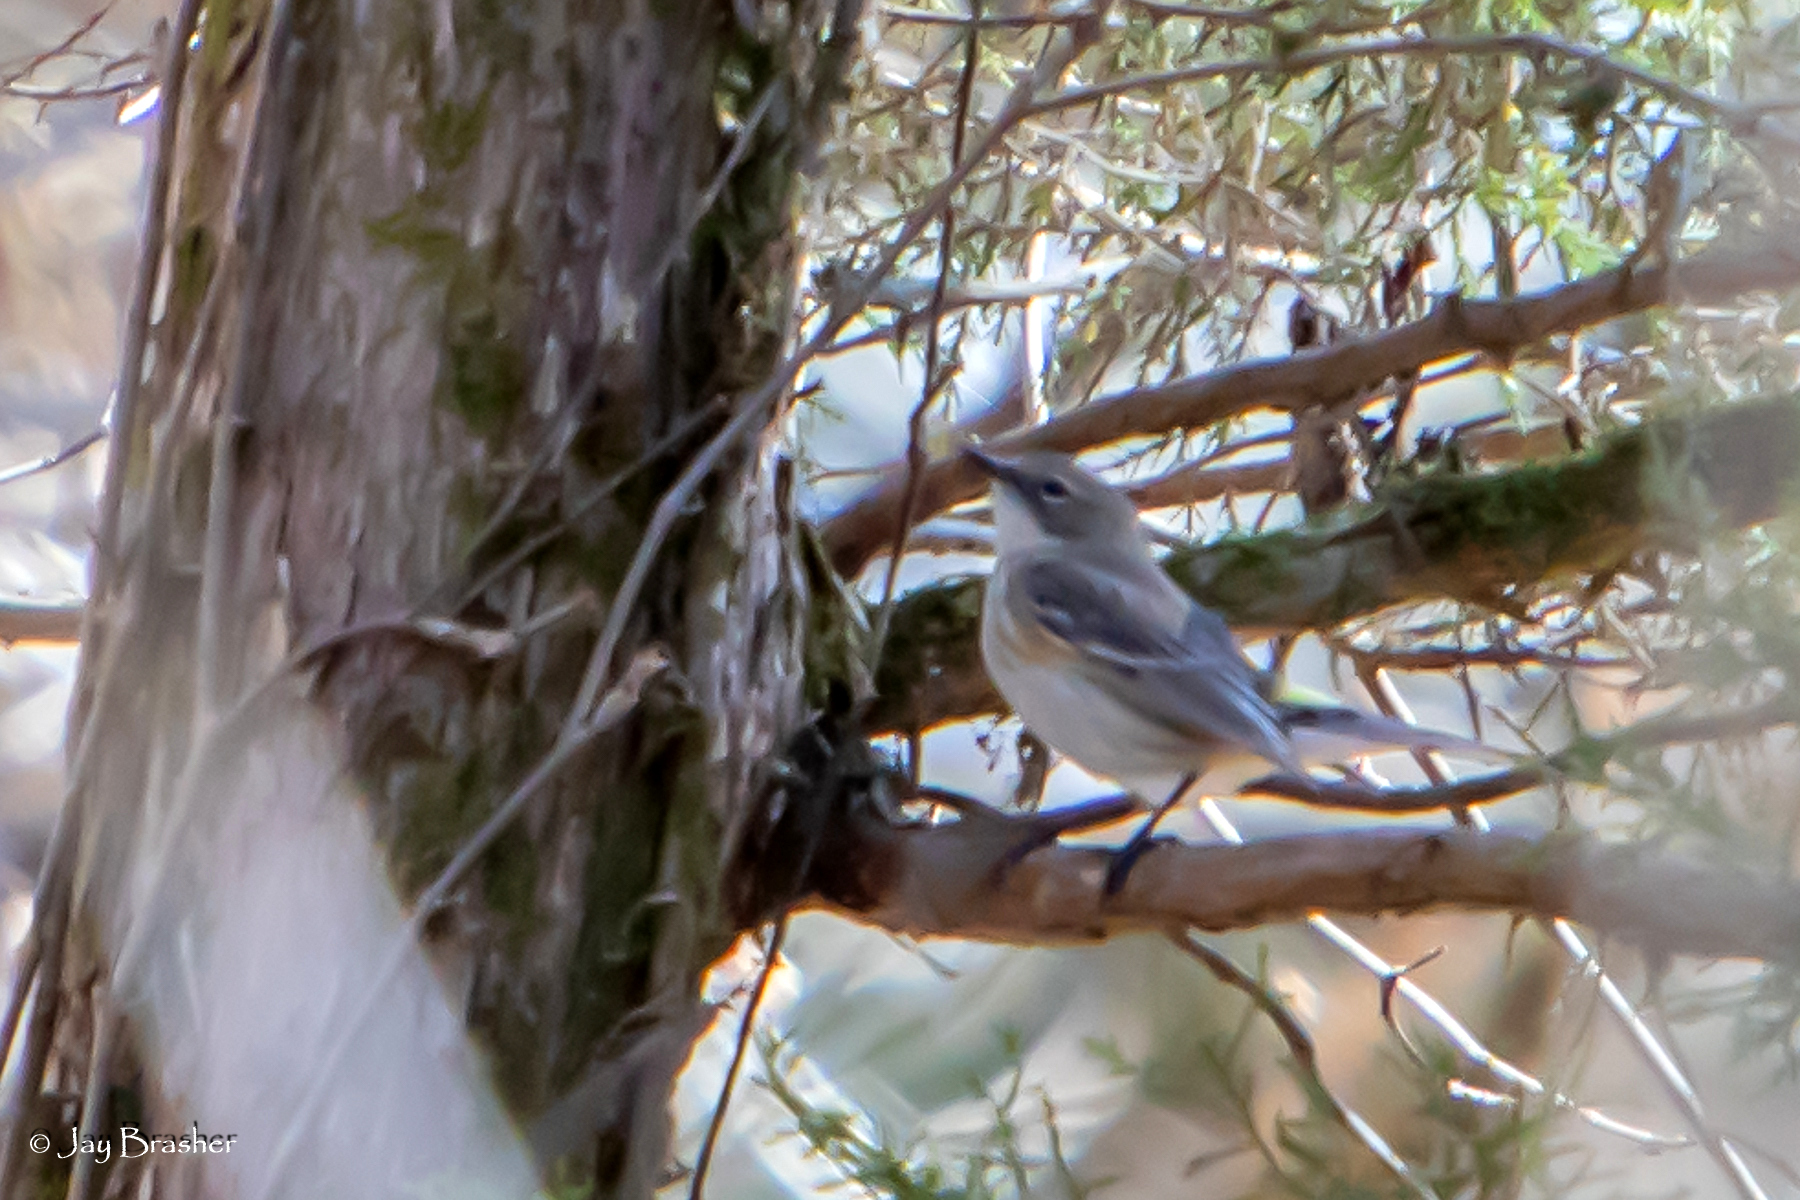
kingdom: Animalia
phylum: Chordata
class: Aves
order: Passeriformes
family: Parulidae
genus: Setophaga
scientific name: Setophaga coronata
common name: Myrtle warbler
